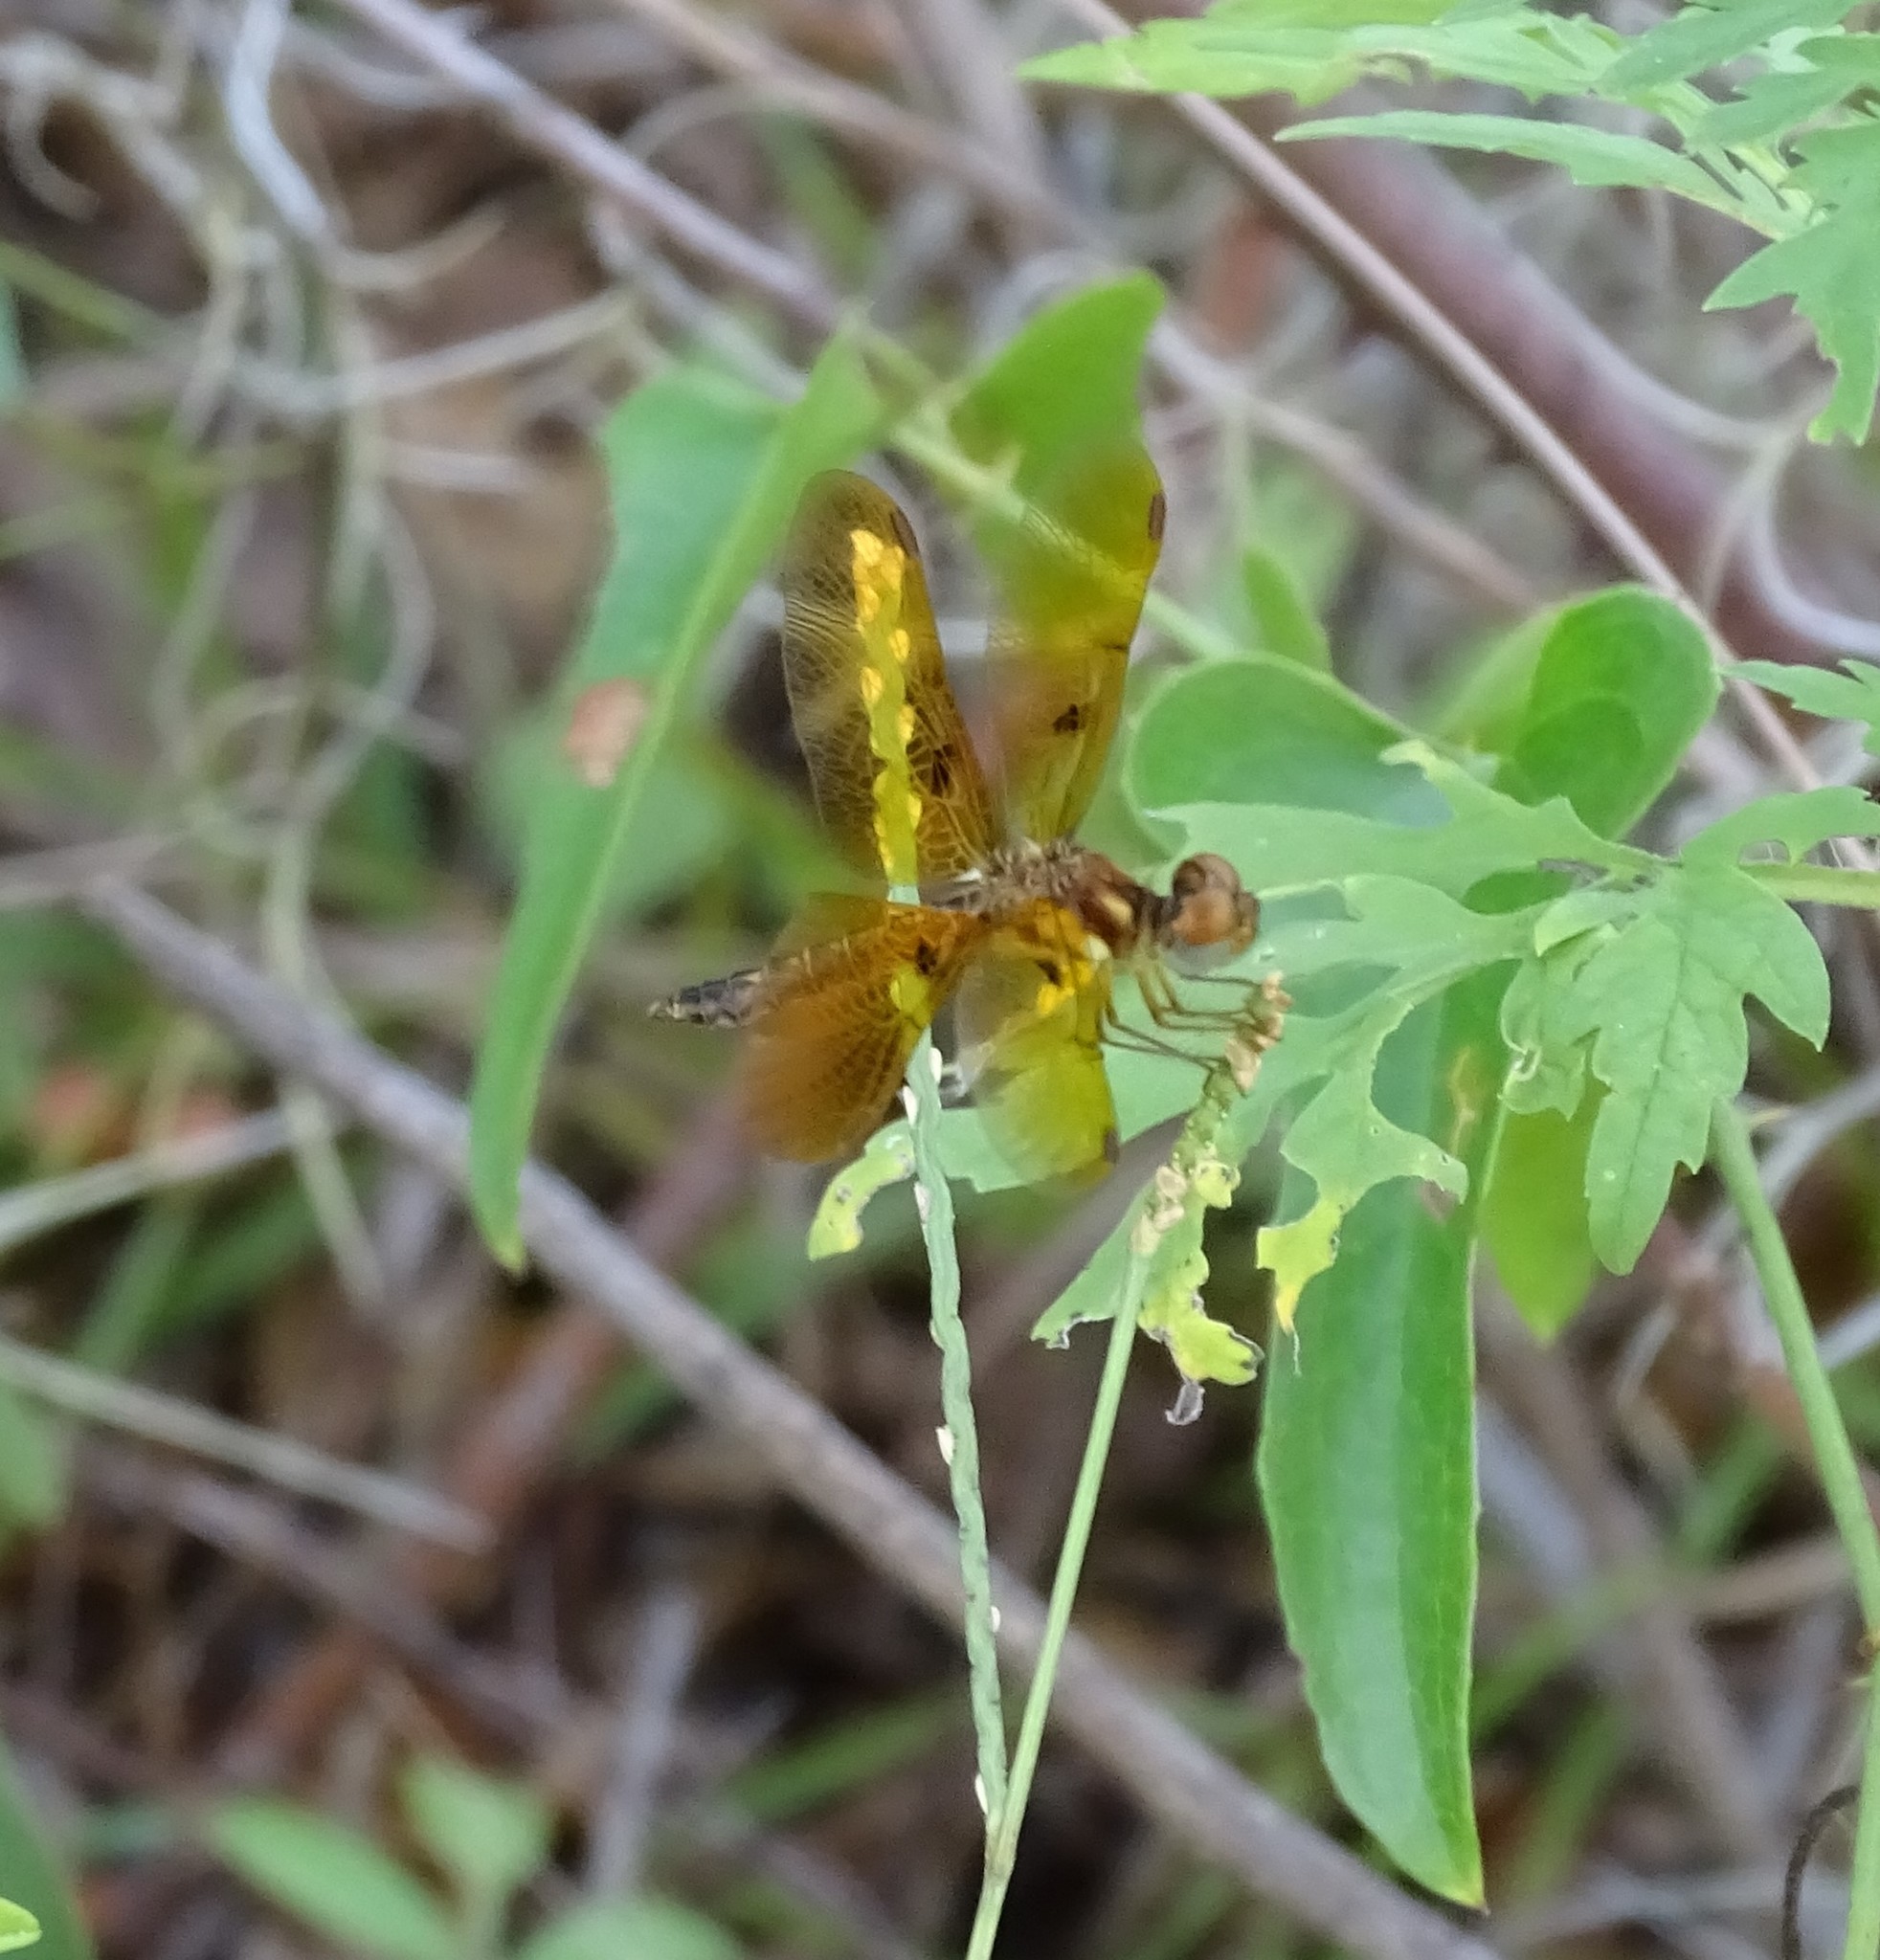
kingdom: Animalia
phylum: Arthropoda
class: Insecta
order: Odonata
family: Libellulidae
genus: Perithemis
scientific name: Perithemis tenera
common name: Eastern amberwing
